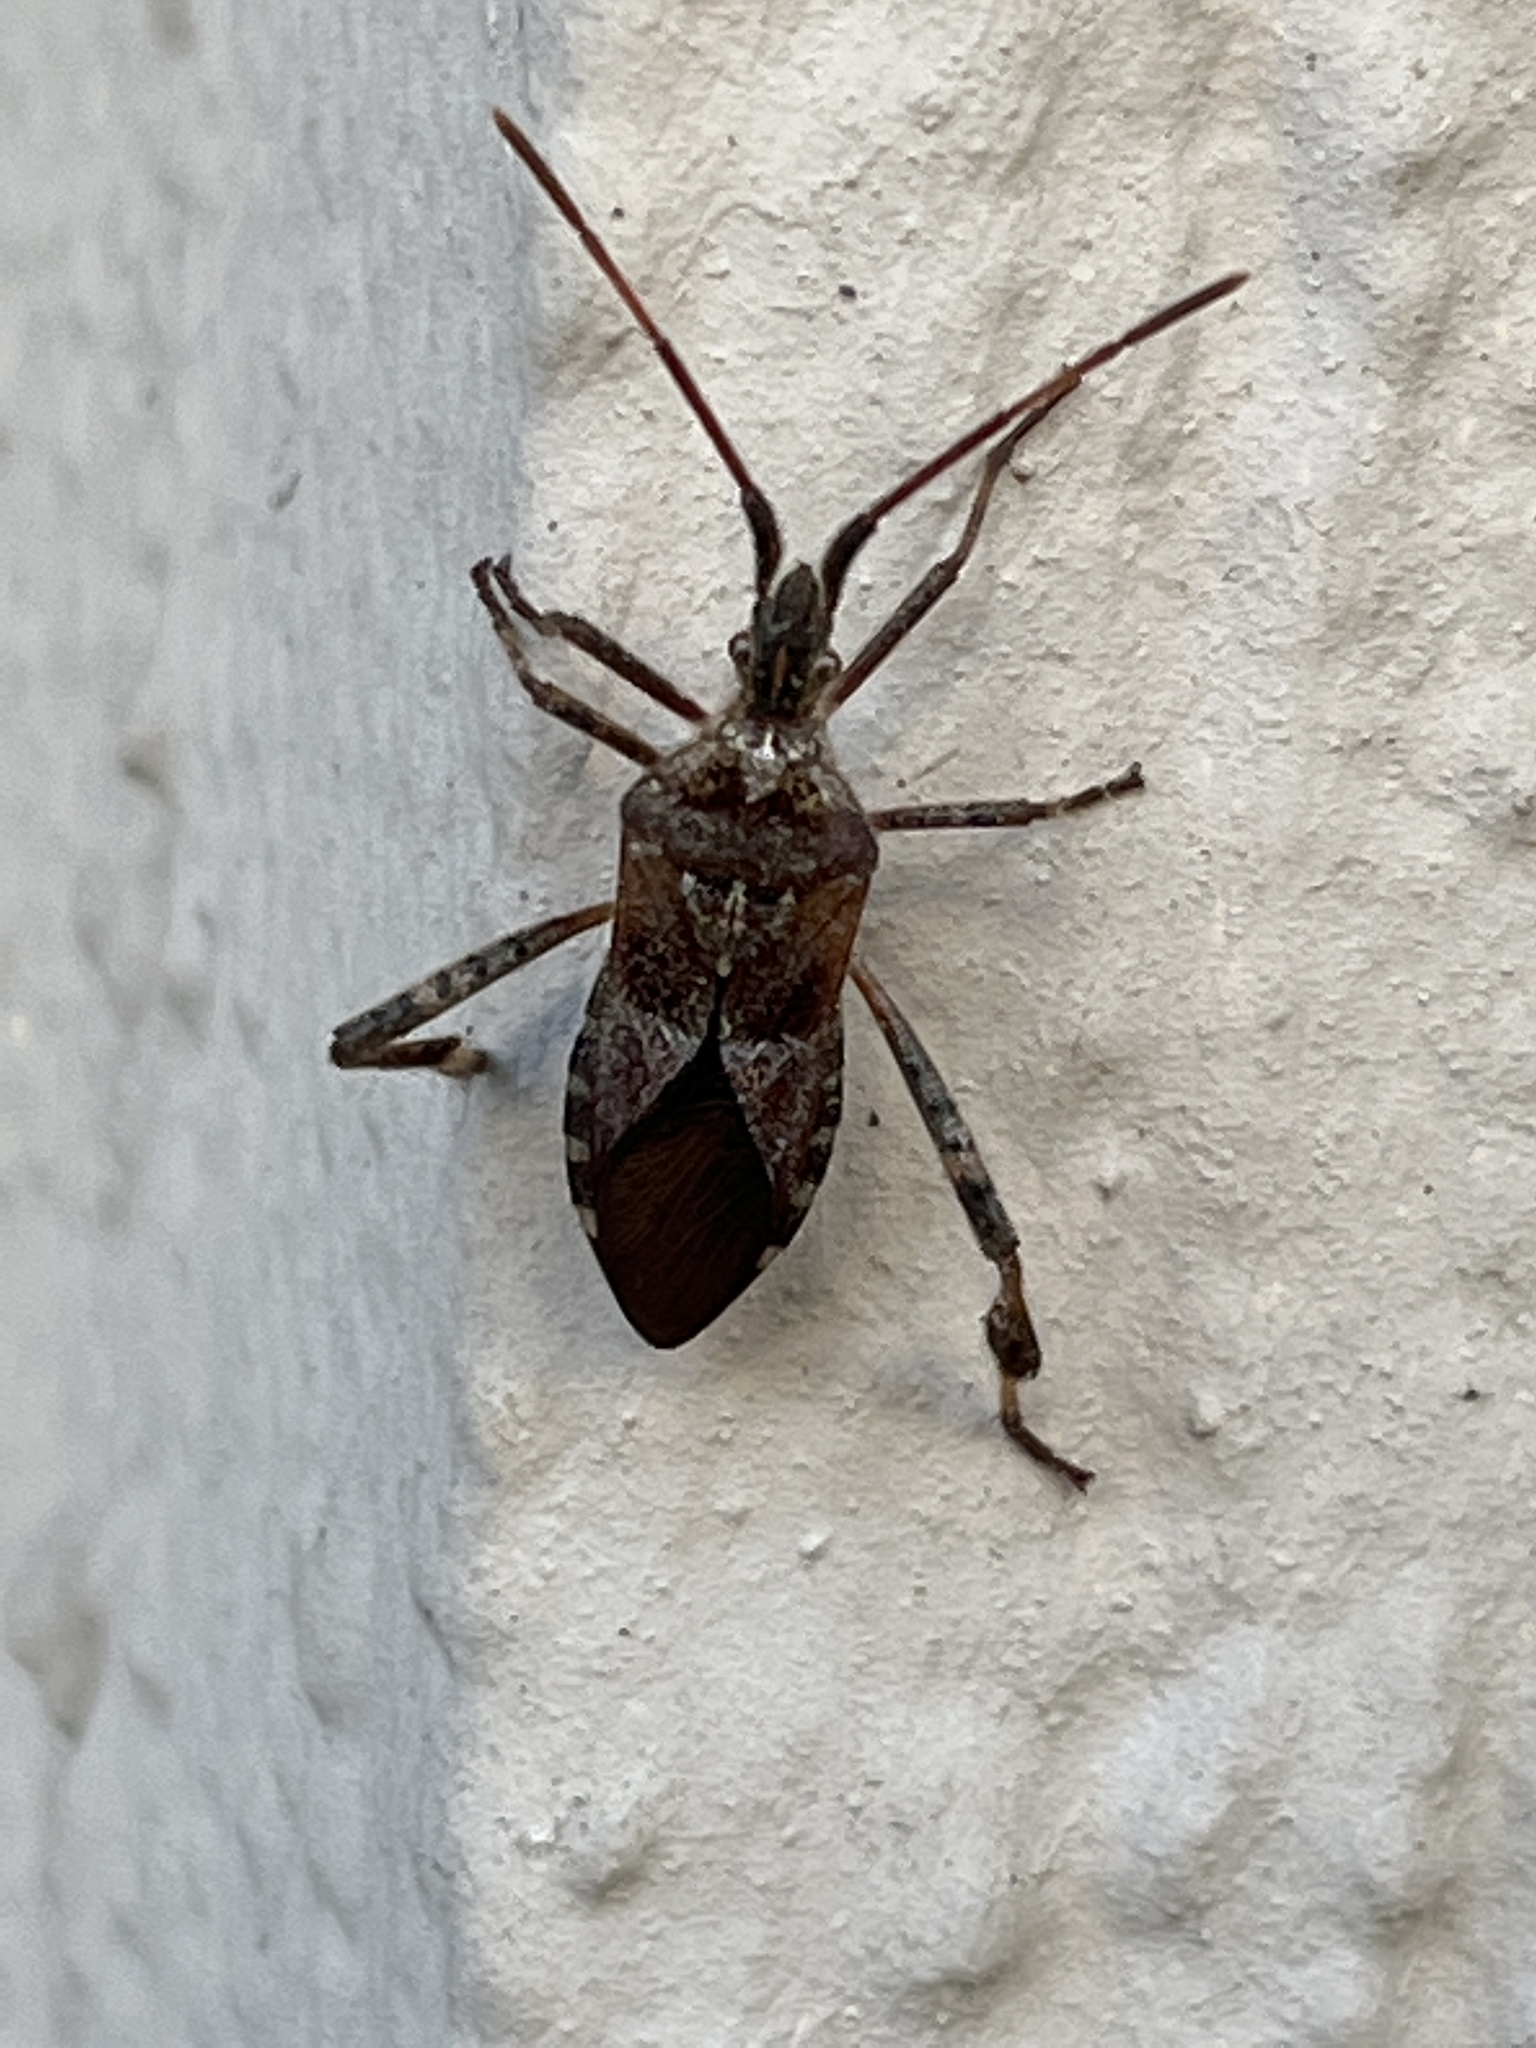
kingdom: Animalia
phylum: Arthropoda
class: Insecta
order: Hemiptera
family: Coreidae
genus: Leptoglossus
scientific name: Leptoglossus occidentalis
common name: Western conifer-seed bug
